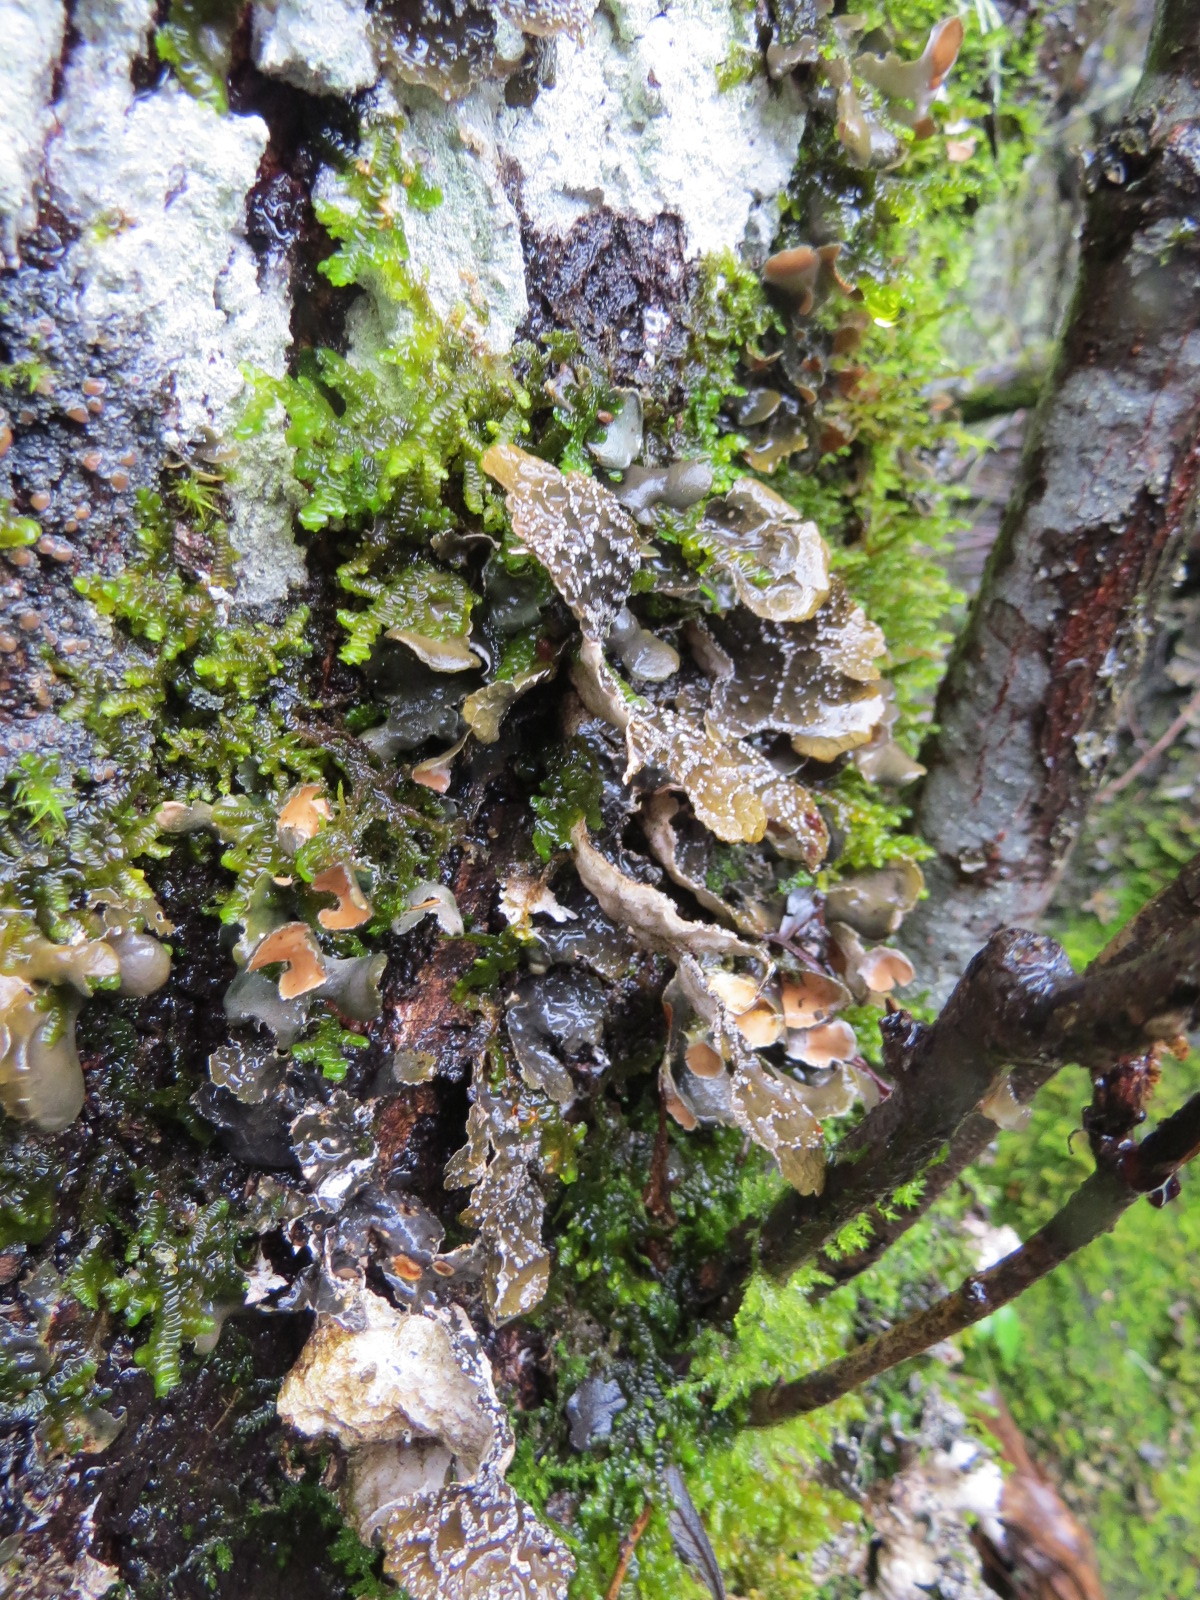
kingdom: Fungi
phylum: Ascomycota
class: Lecanoromycetes
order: Peltigerales
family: Lobariaceae
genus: Lobaria
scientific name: Lobaria anomala
